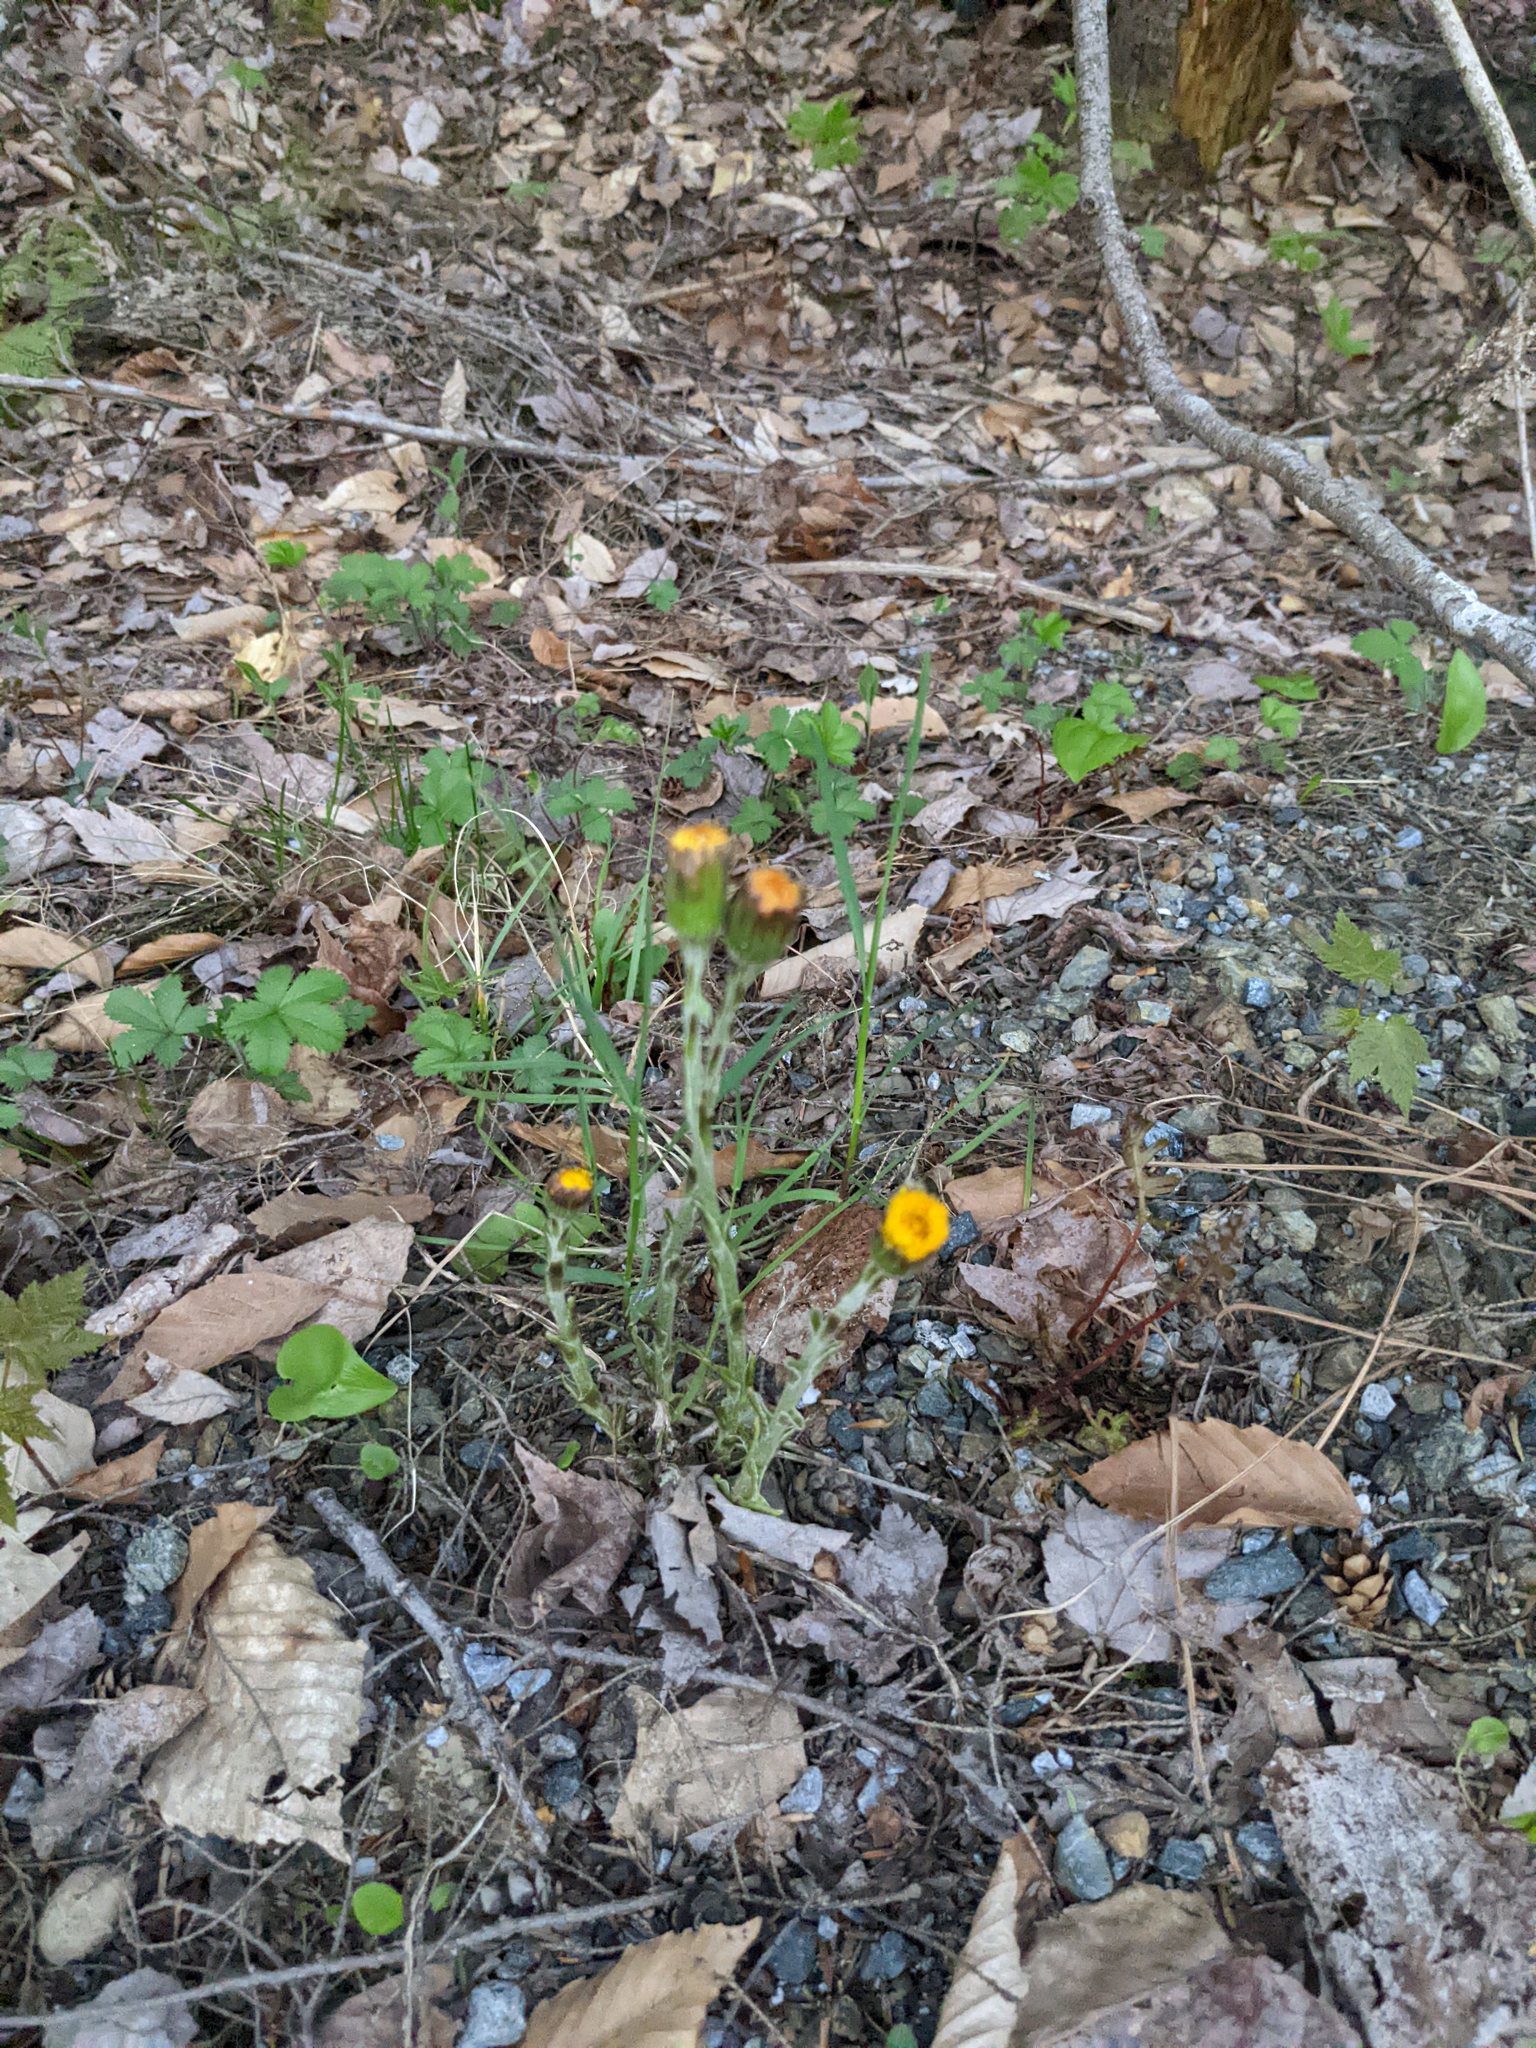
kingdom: Plantae
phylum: Tracheophyta
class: Magnoliopsida
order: Asterales
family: Asteraceae
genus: Tussilago
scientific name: Tussilago farfara
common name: Coltsfoot
